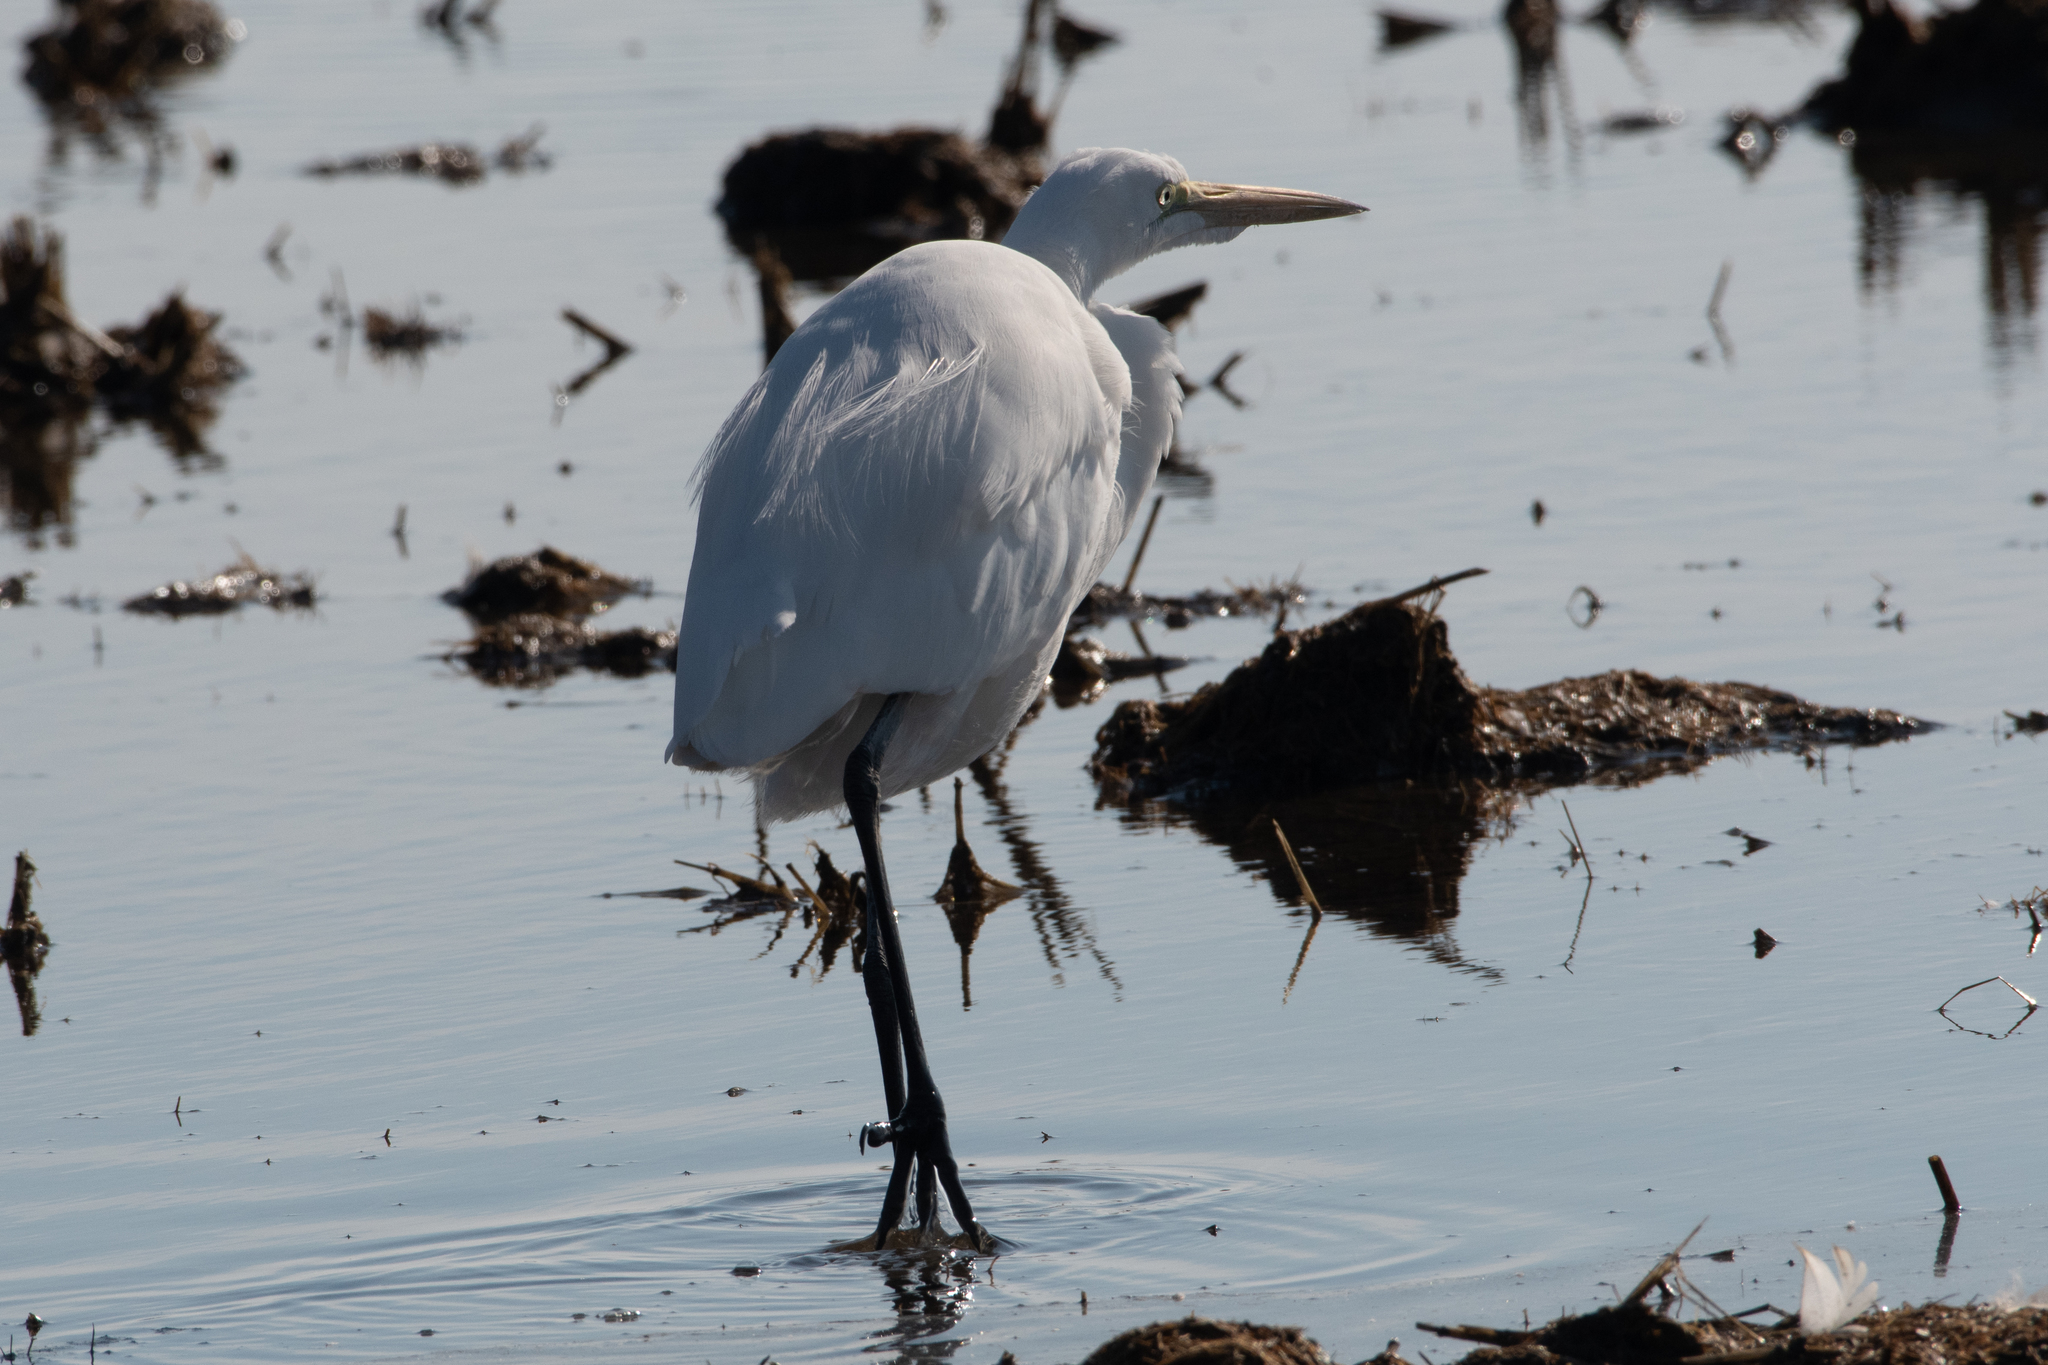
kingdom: Animalia
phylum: Chordata
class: Aves
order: Pelecaniformes
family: Ardeidae
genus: Ardea
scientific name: Ardea alba
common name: Great egret
